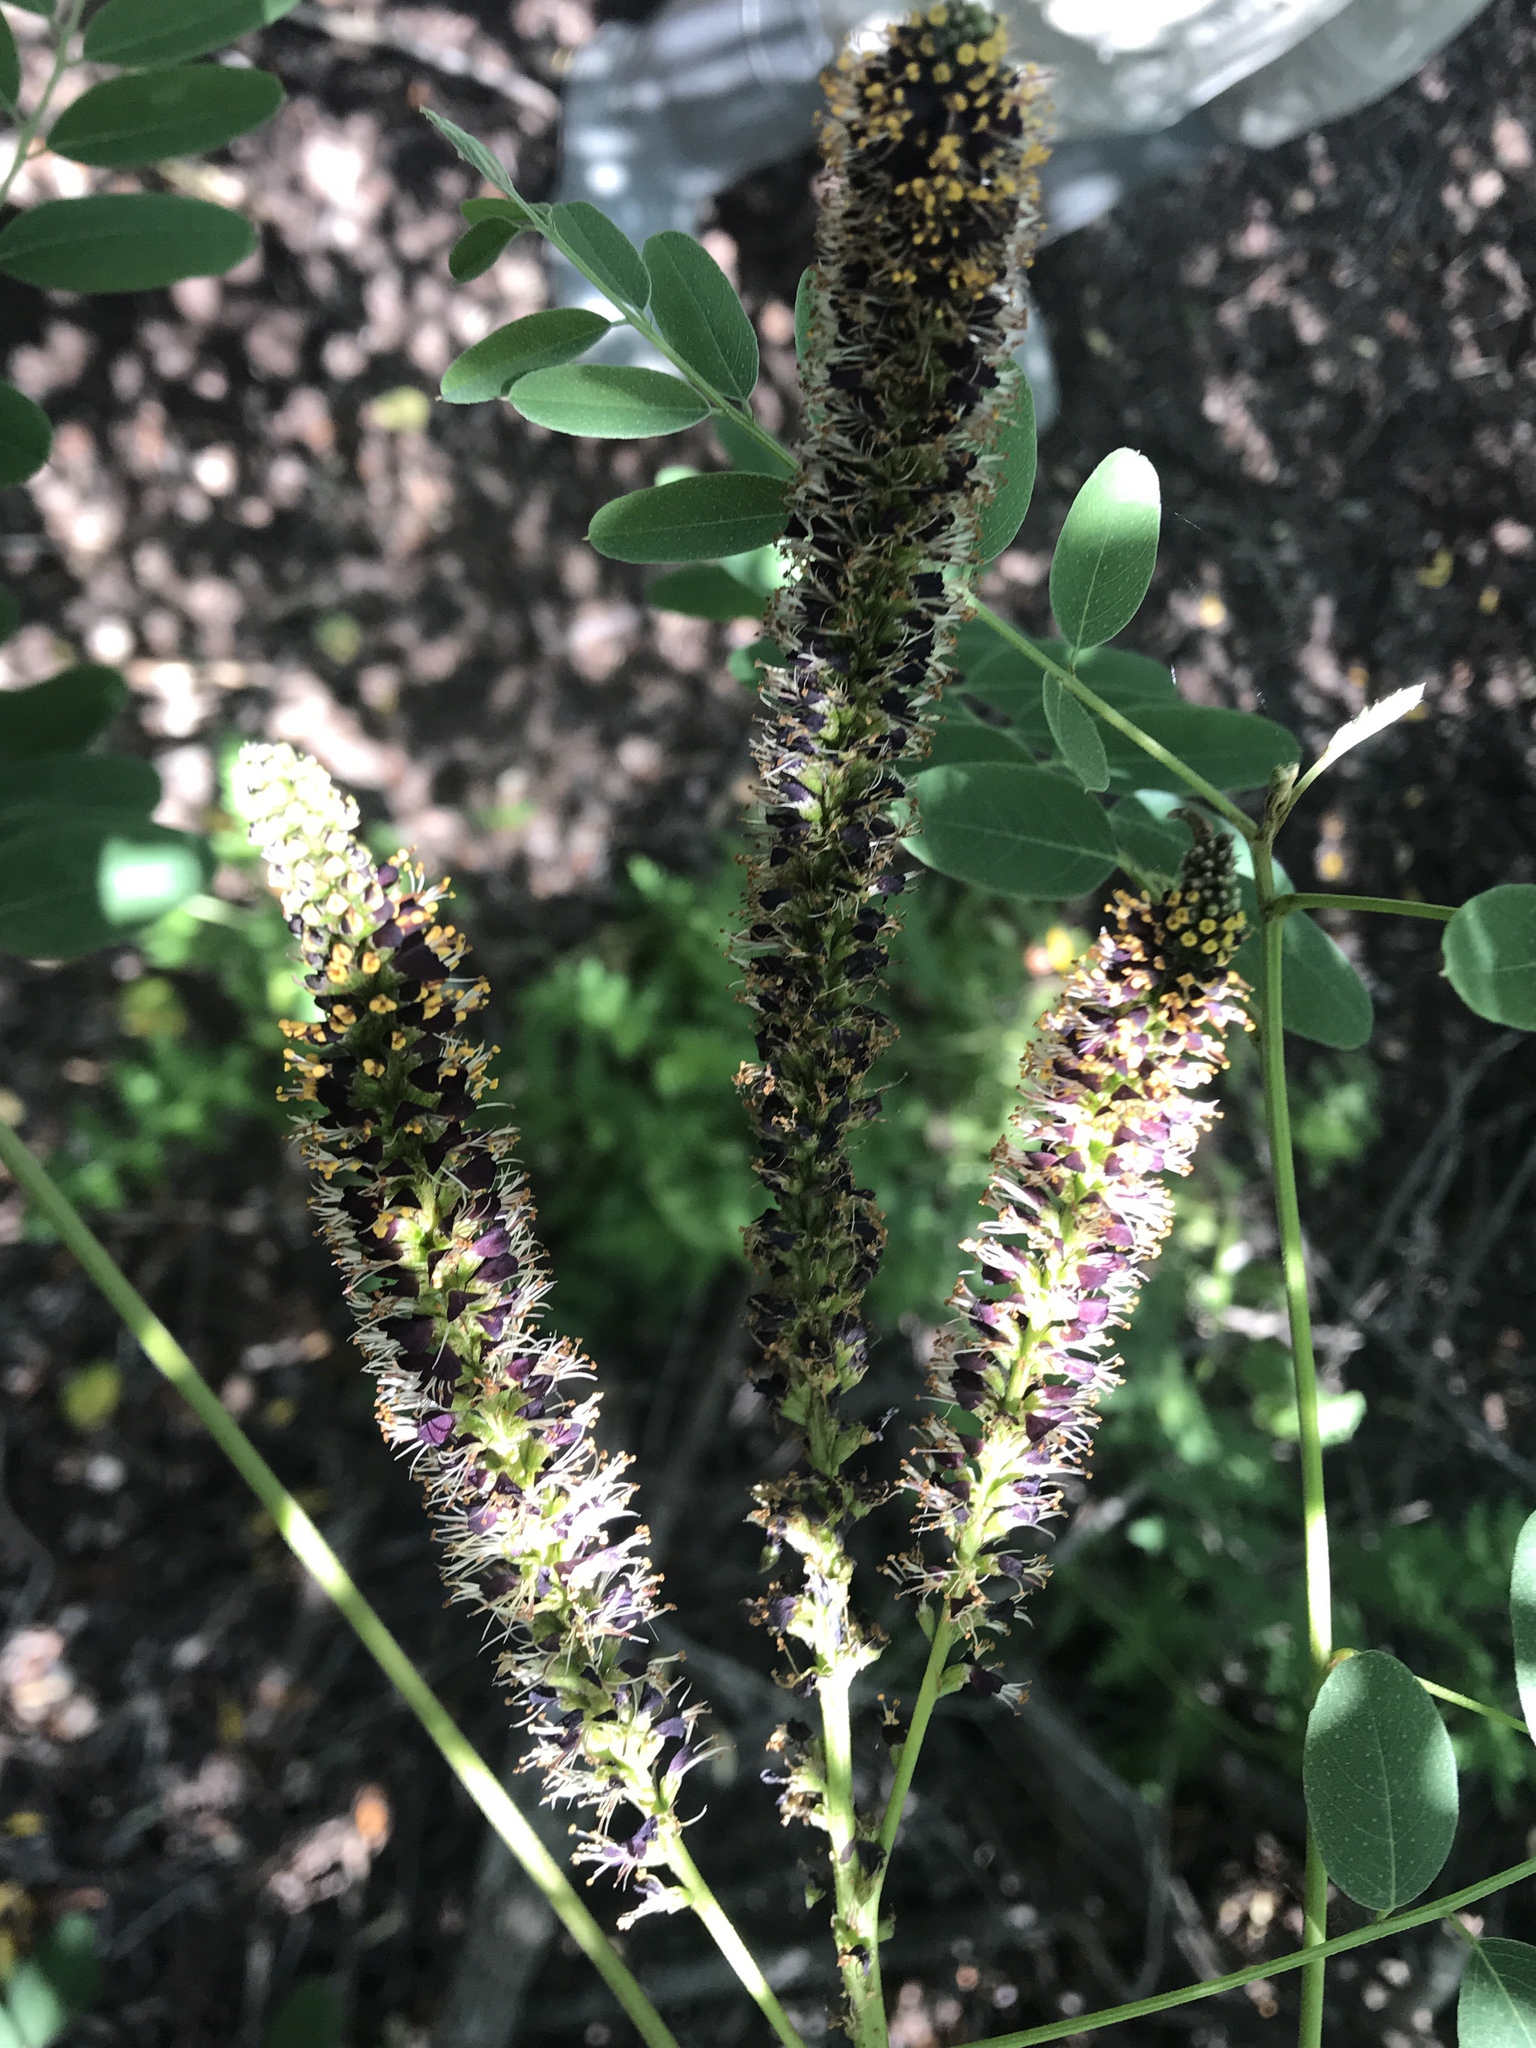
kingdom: Plantae
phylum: Tracheophyta
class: Magnoliopsida
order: Fabales
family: Fabaceae
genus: Amorpha
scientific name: Amorpha fruticosa
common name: False indigo
